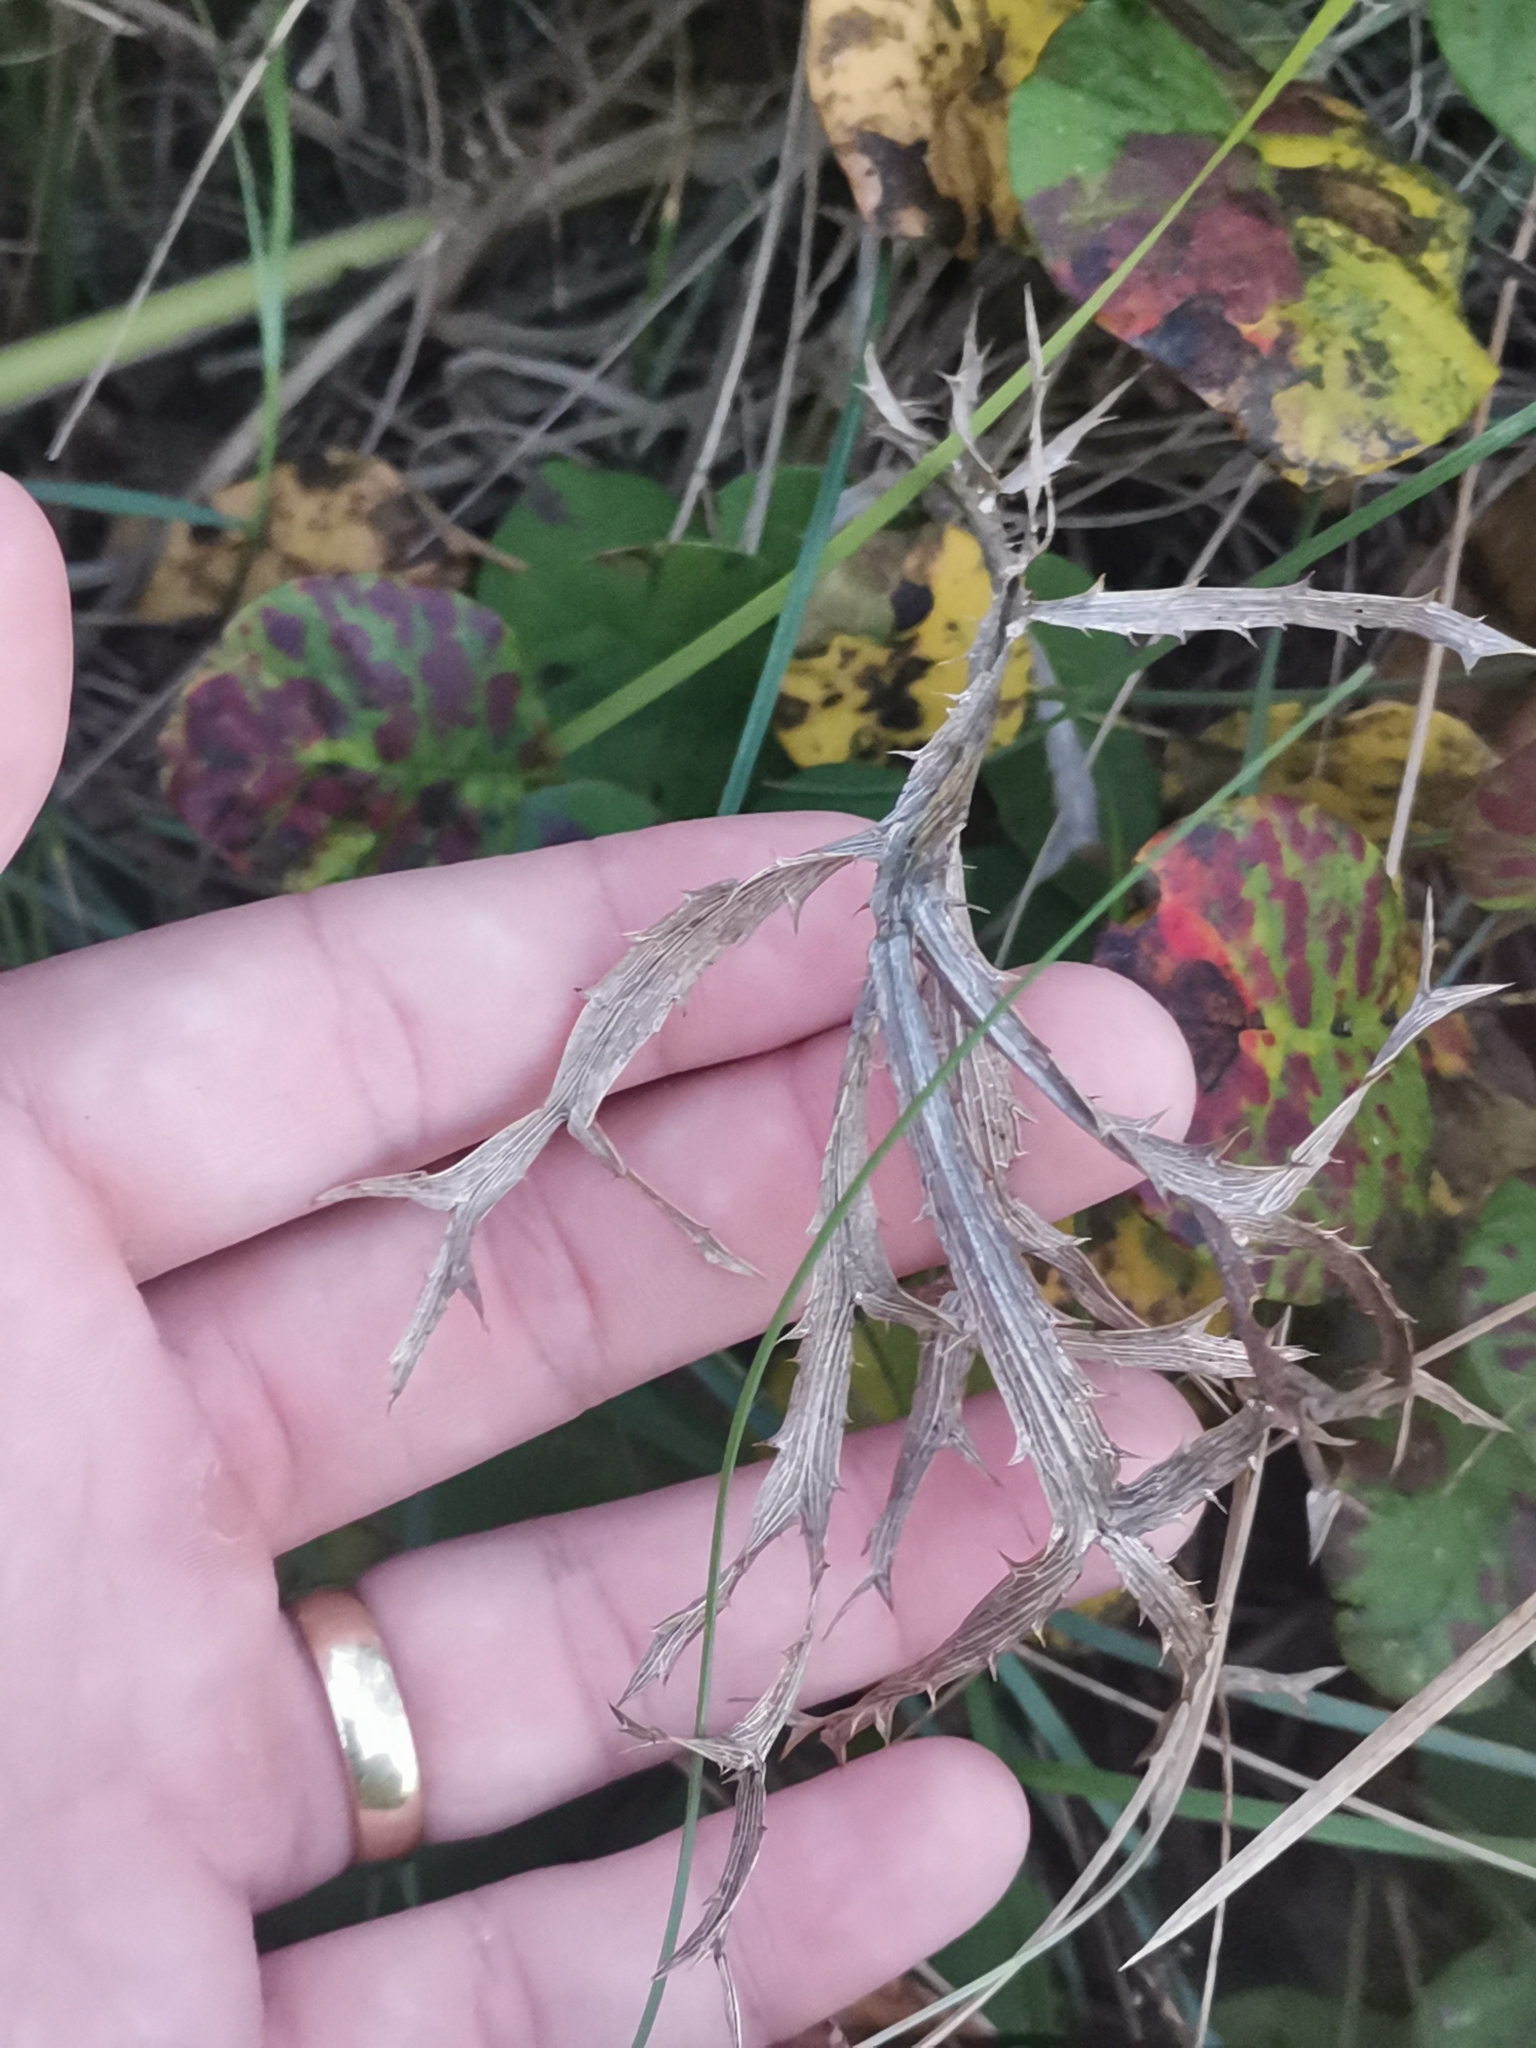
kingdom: Plantae
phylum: Tracheophyta
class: Magnoliopsida
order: Apiales
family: Apiaceae
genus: Eryngium
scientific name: Eryngium amethystinum
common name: Amethyst eryngo
